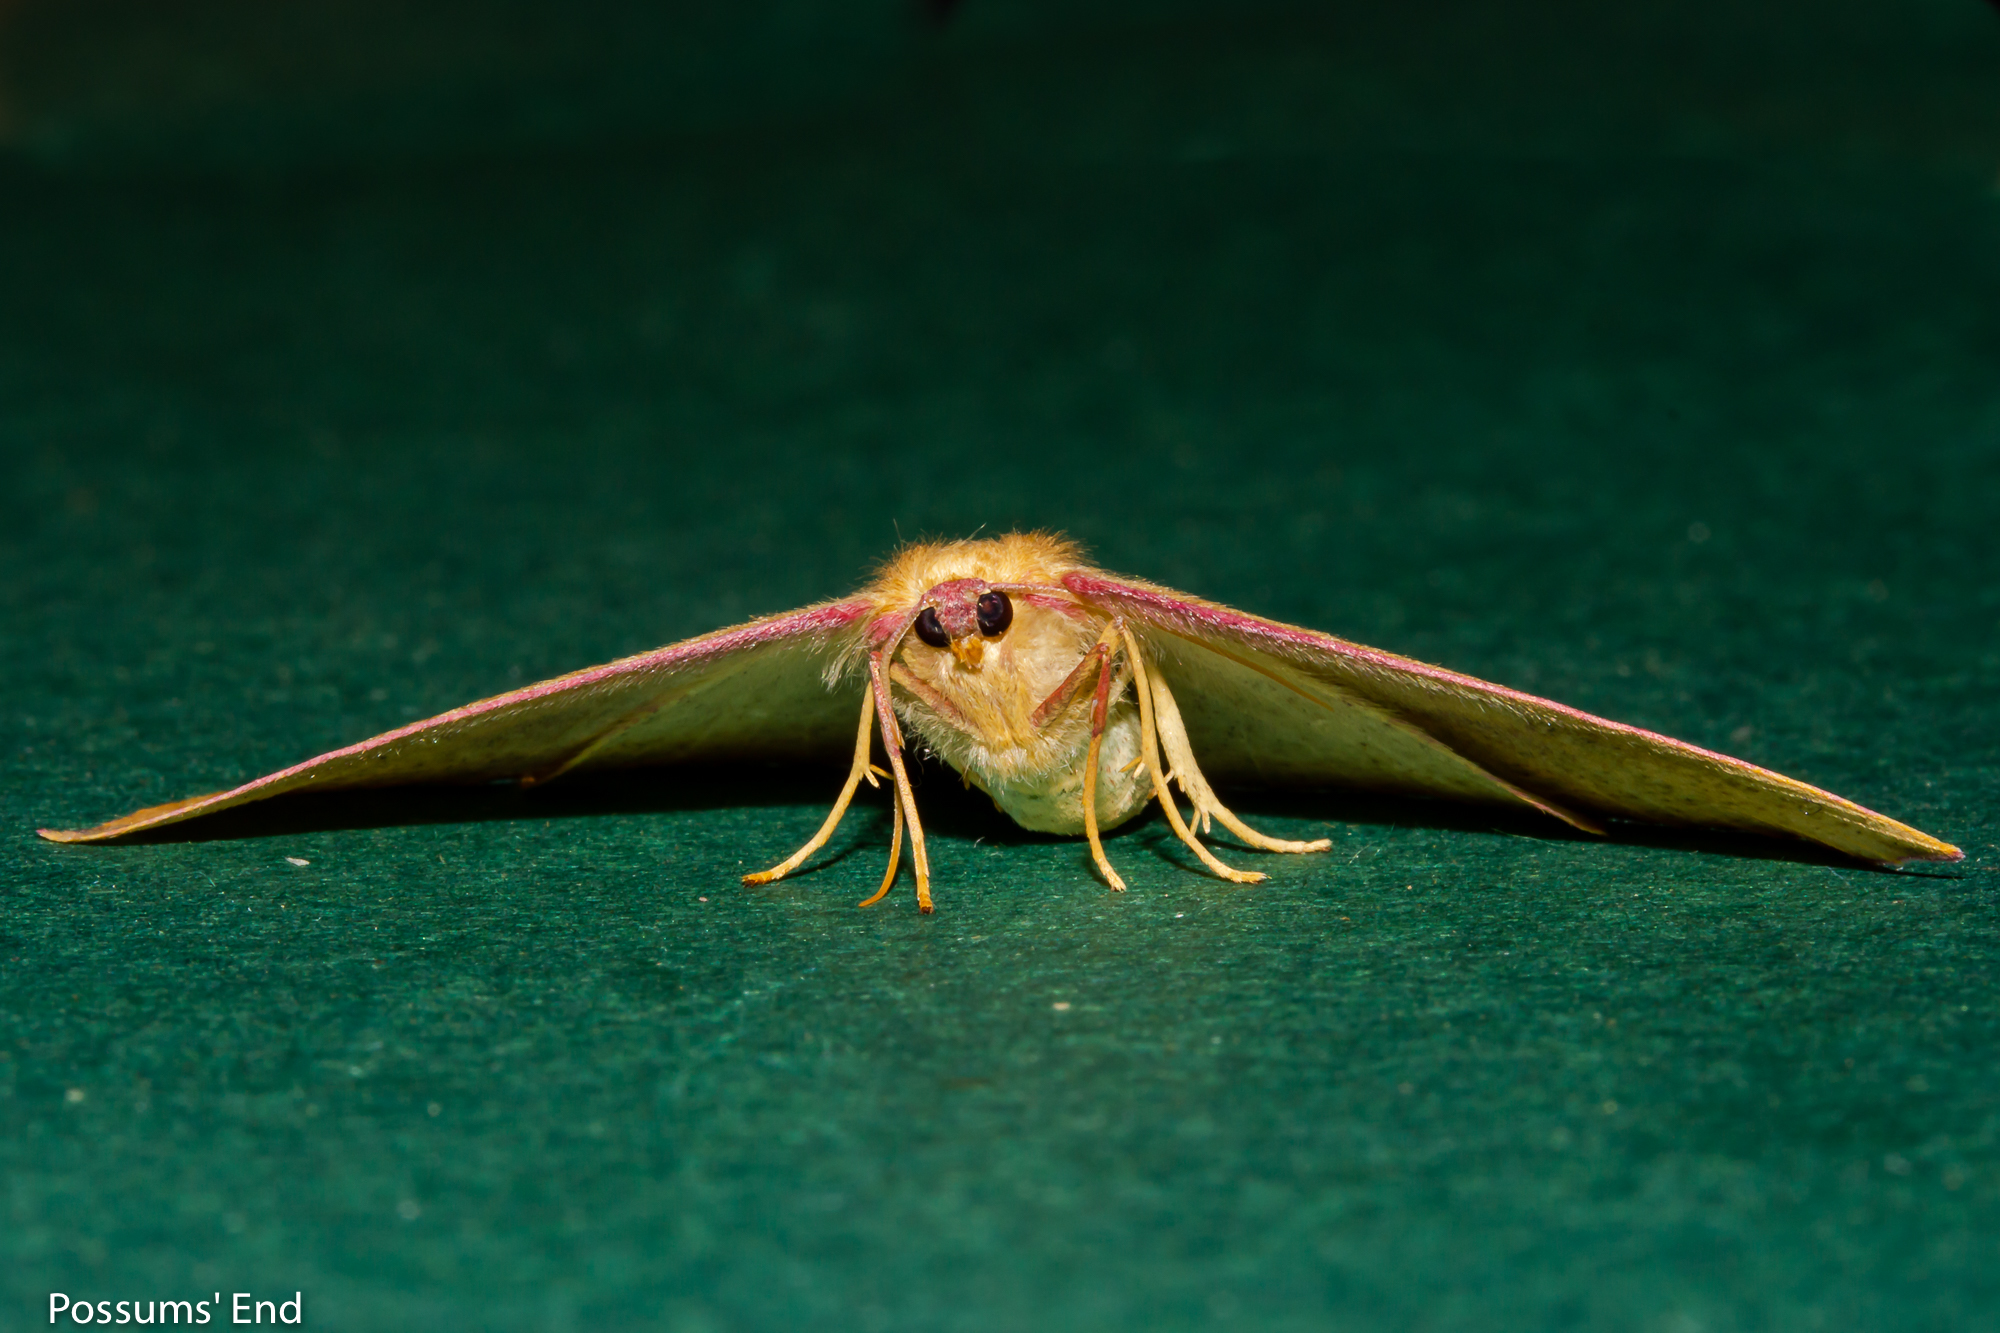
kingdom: Animalia
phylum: Arthropoda
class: Insecta
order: Lepidoptera
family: Geometridae
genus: Xyridacma
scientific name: Xyridacma alectoraria
